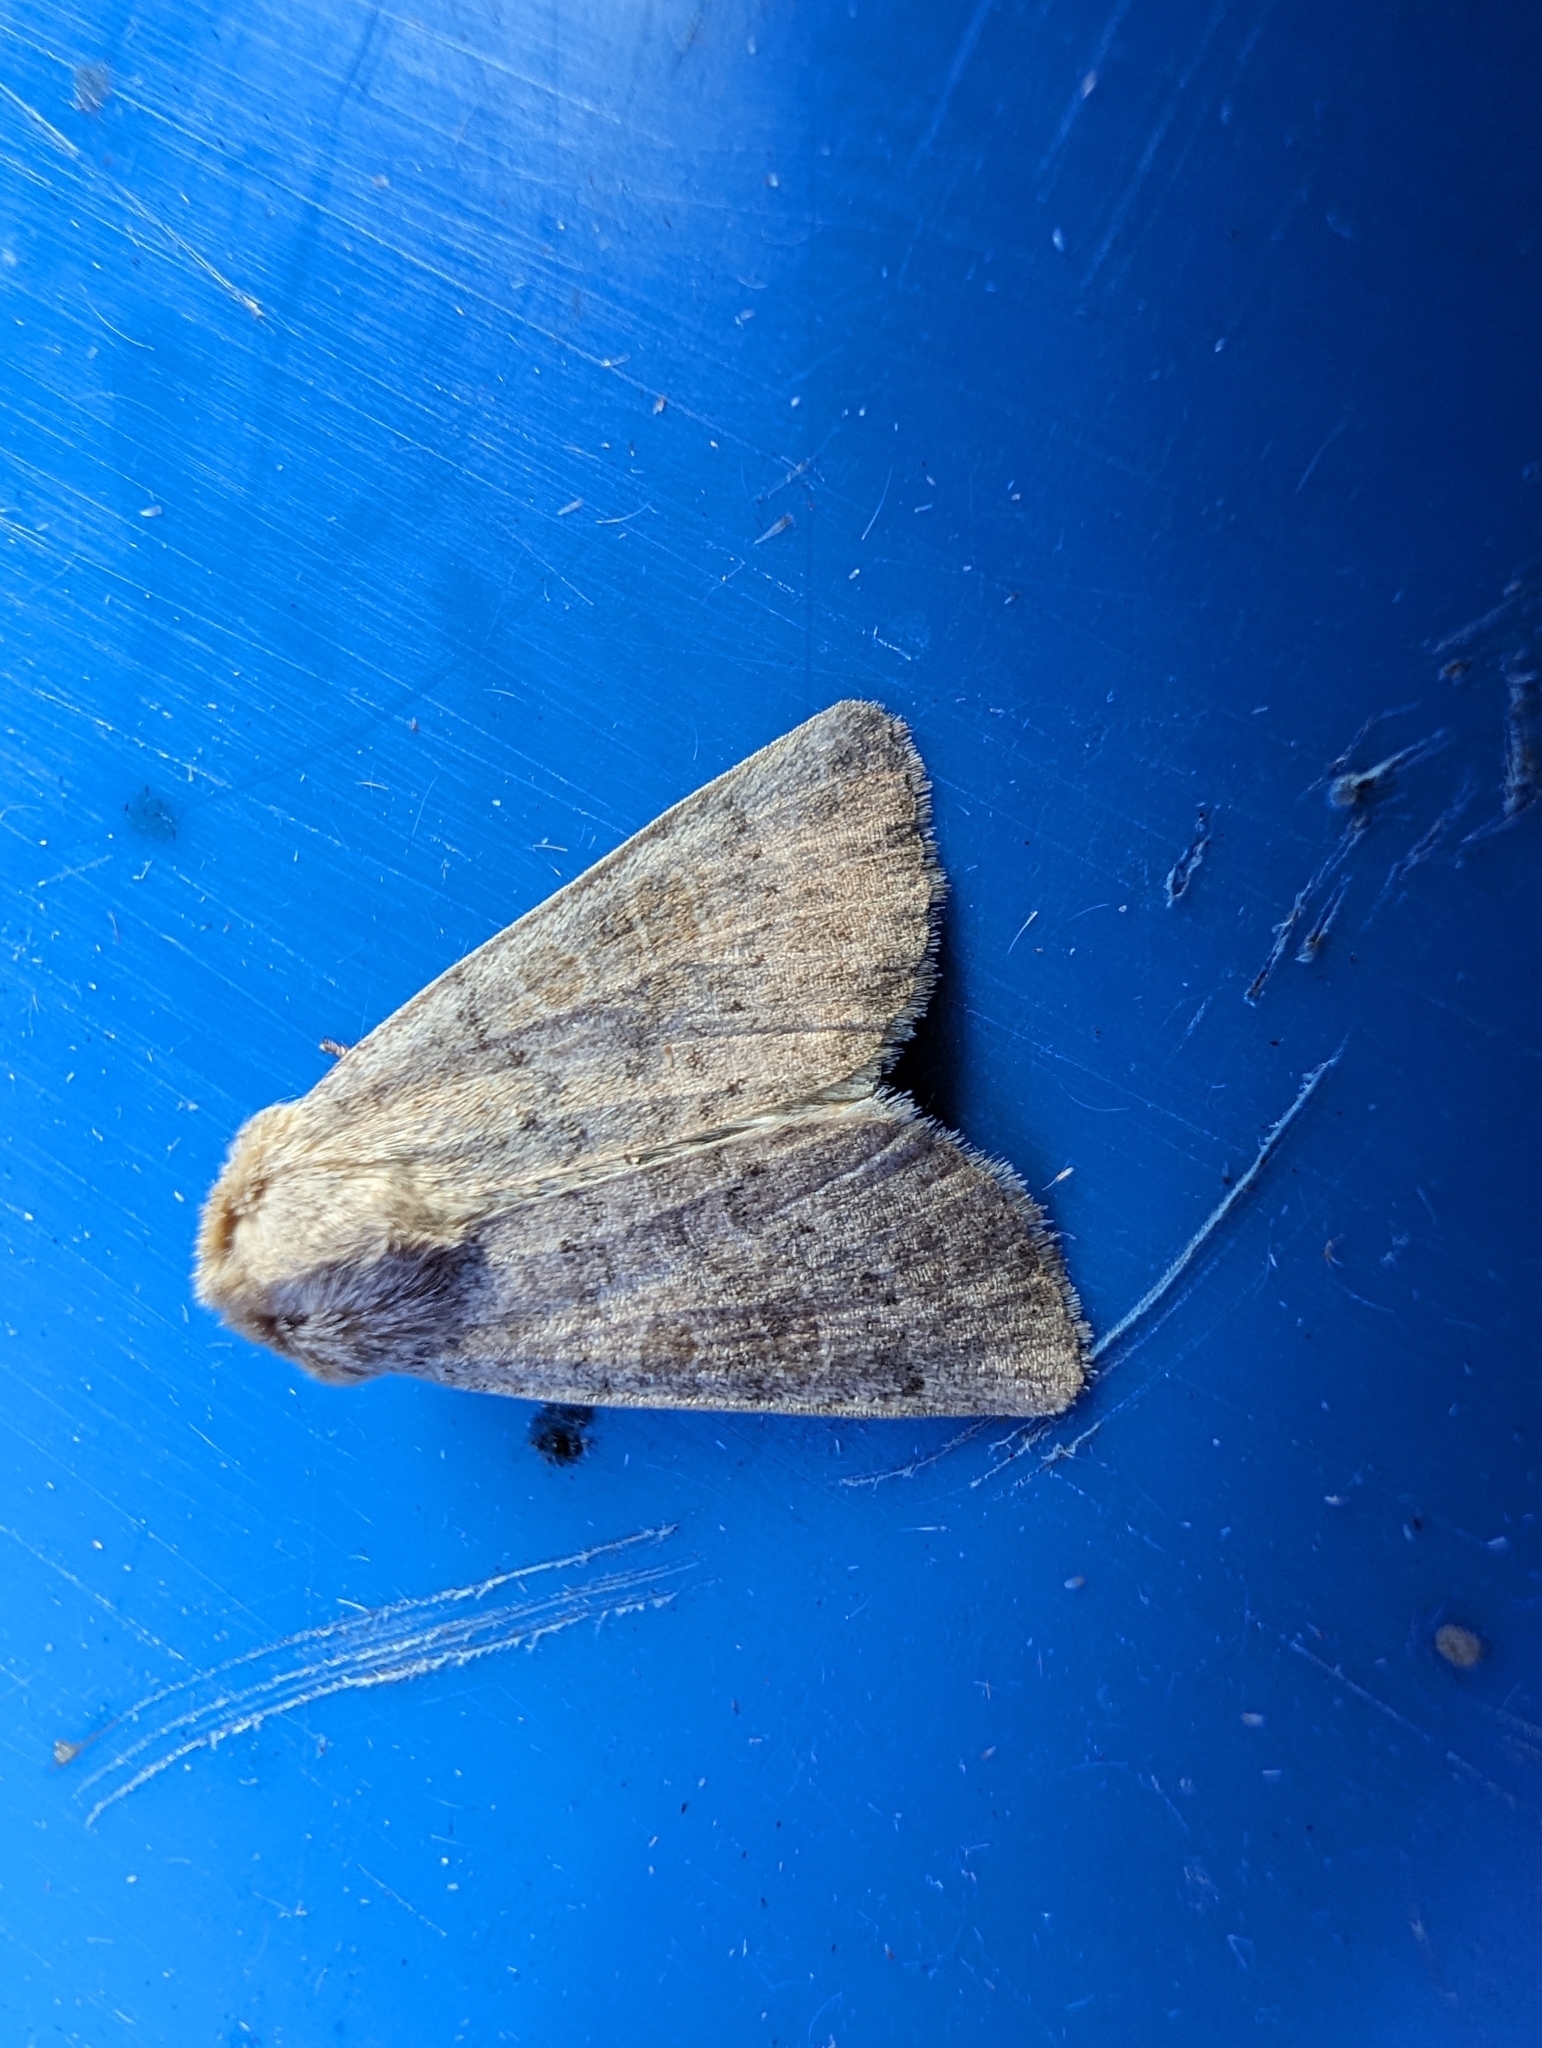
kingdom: Animalia
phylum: Arthropoda
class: Insecta
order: Lepidoptera
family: Noctuidae
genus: Hoplodrina
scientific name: Hoplodrina ambigua
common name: Vine's rustic
